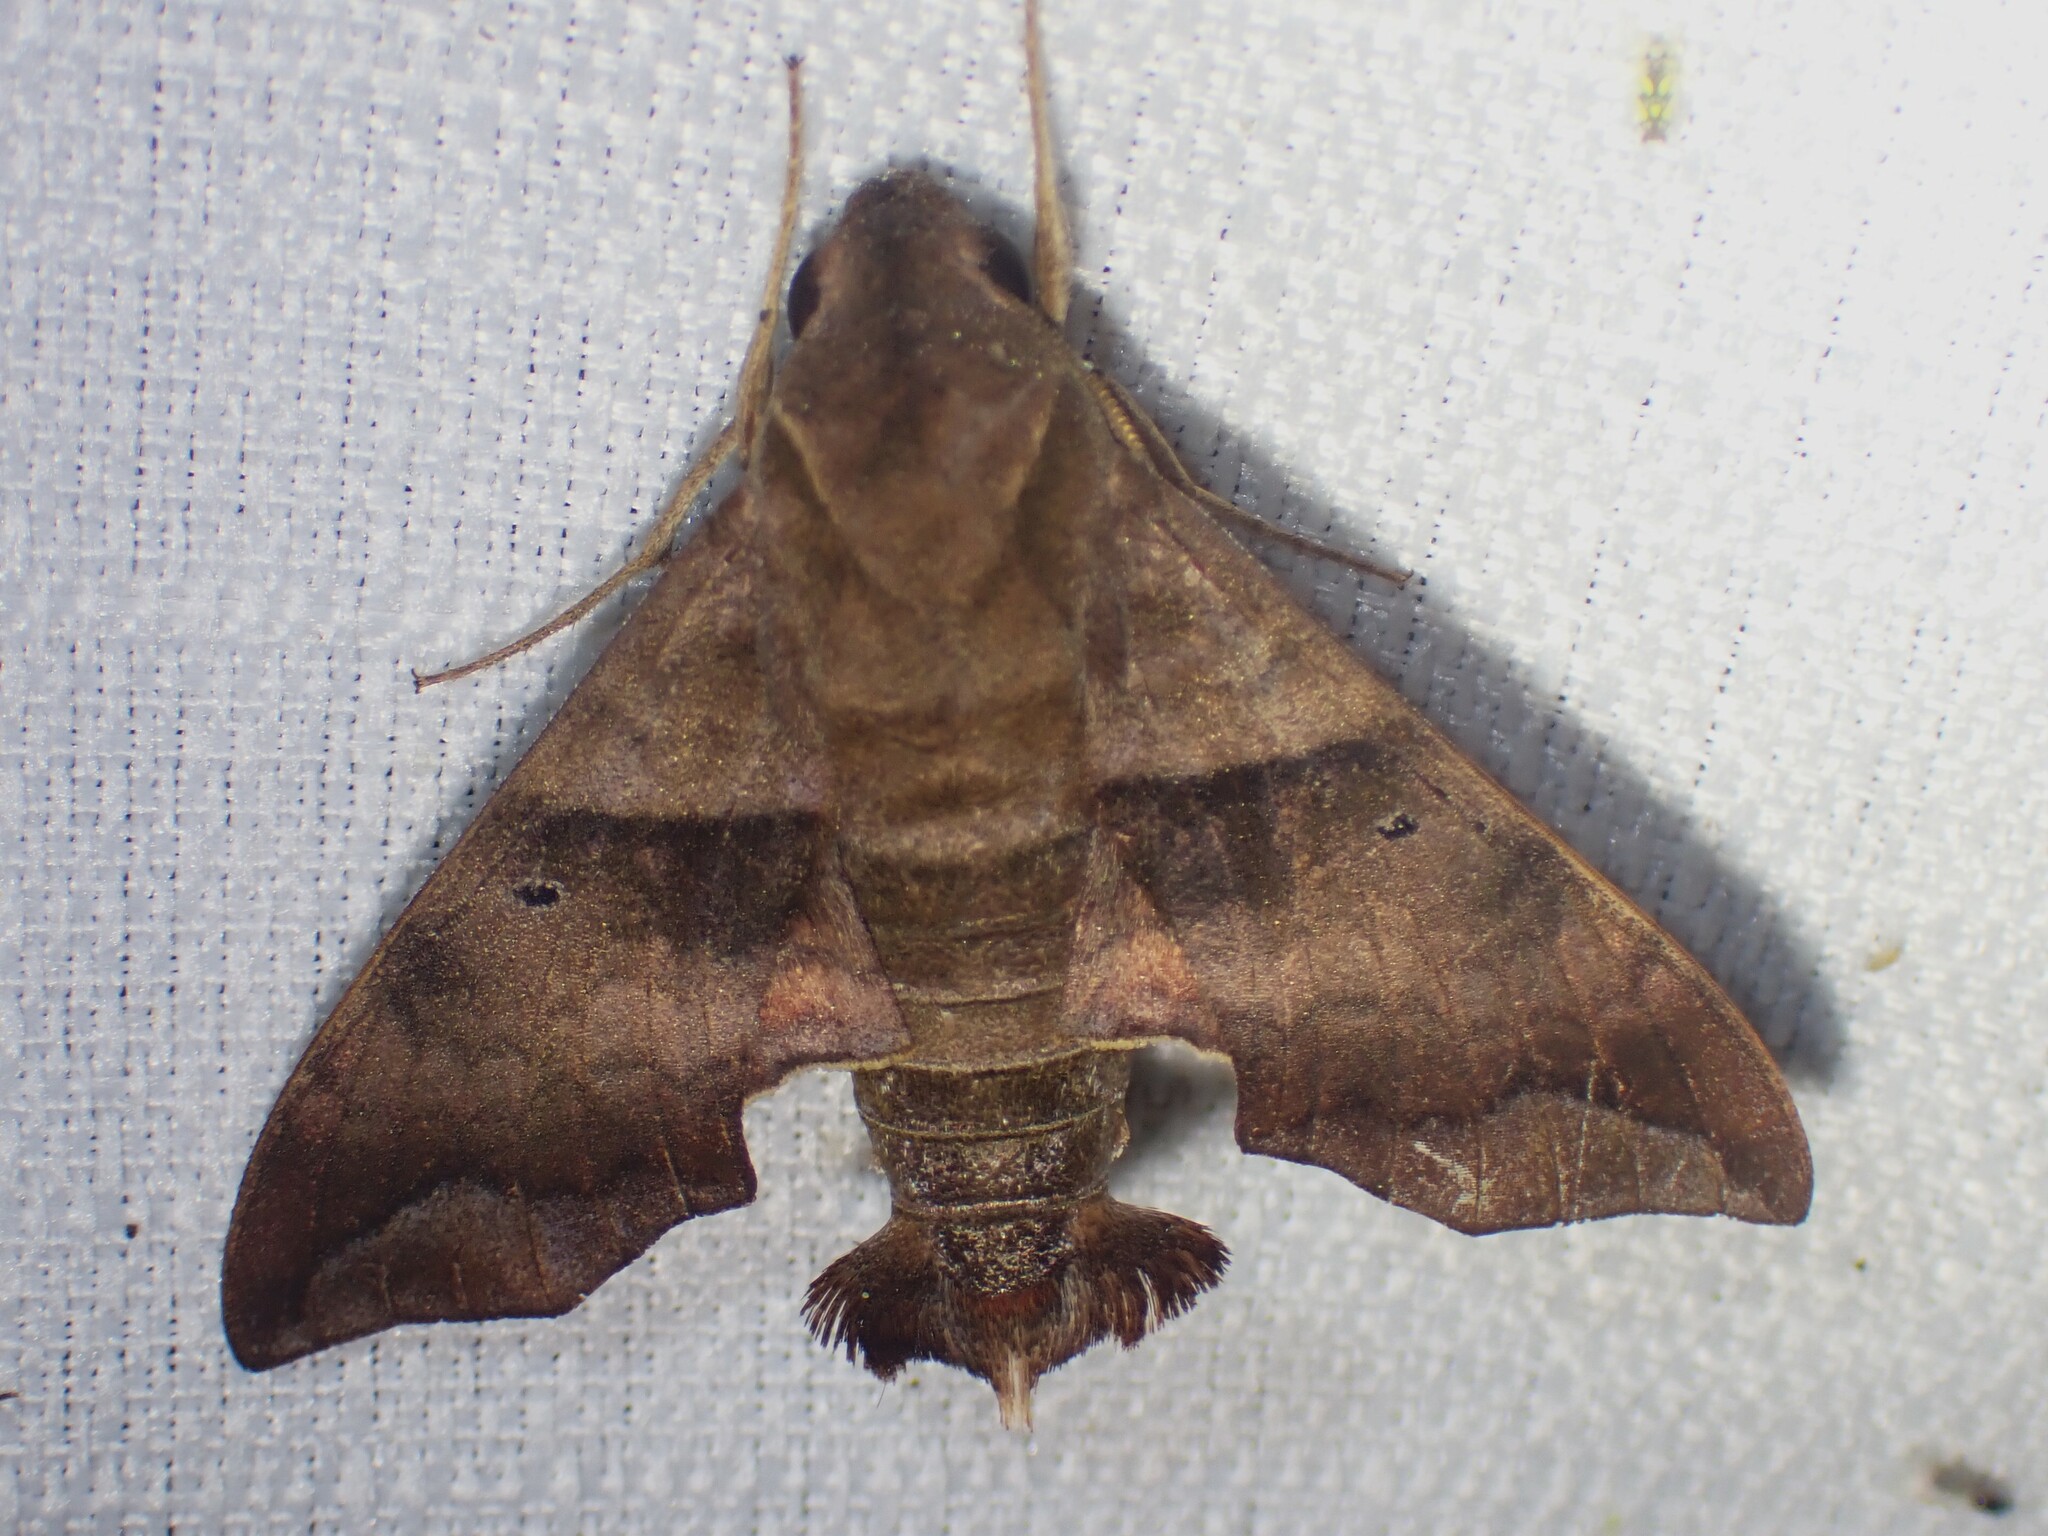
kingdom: Animalia
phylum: Arthropoda
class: Insecta
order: Lepidoptera
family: Sphingidae
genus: Perigonia
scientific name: Perigonia lusca
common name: Half-blind sphinx
